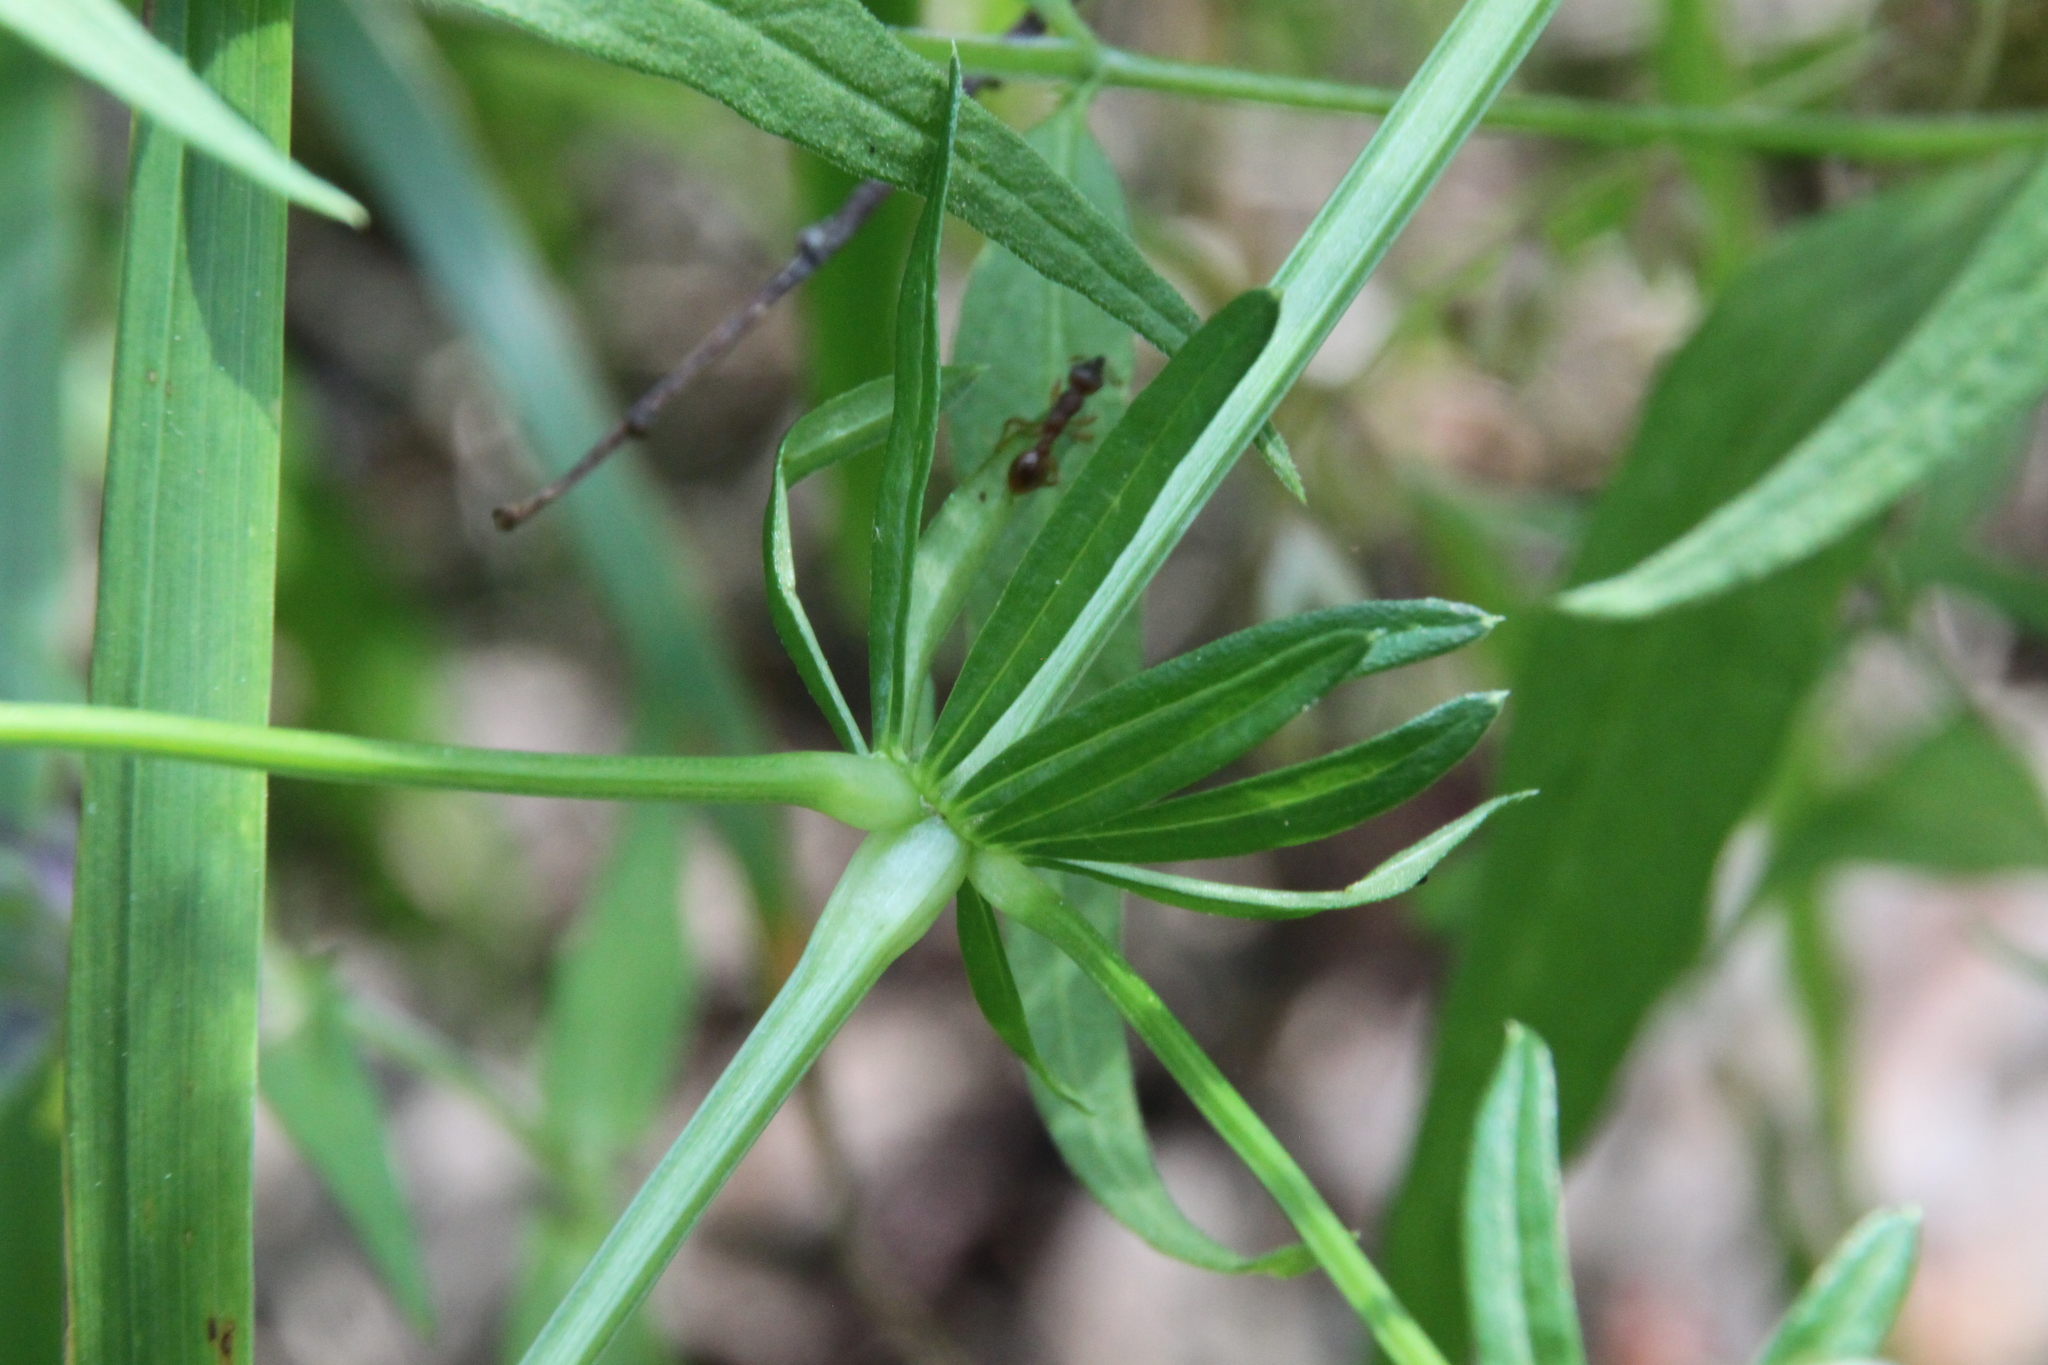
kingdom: Plantae
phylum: Tracheophyta
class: Magnoliopsida
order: Gentianales
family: Rubiaceae
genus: Galium
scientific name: Galium mollugo
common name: Hedge bedstraw
